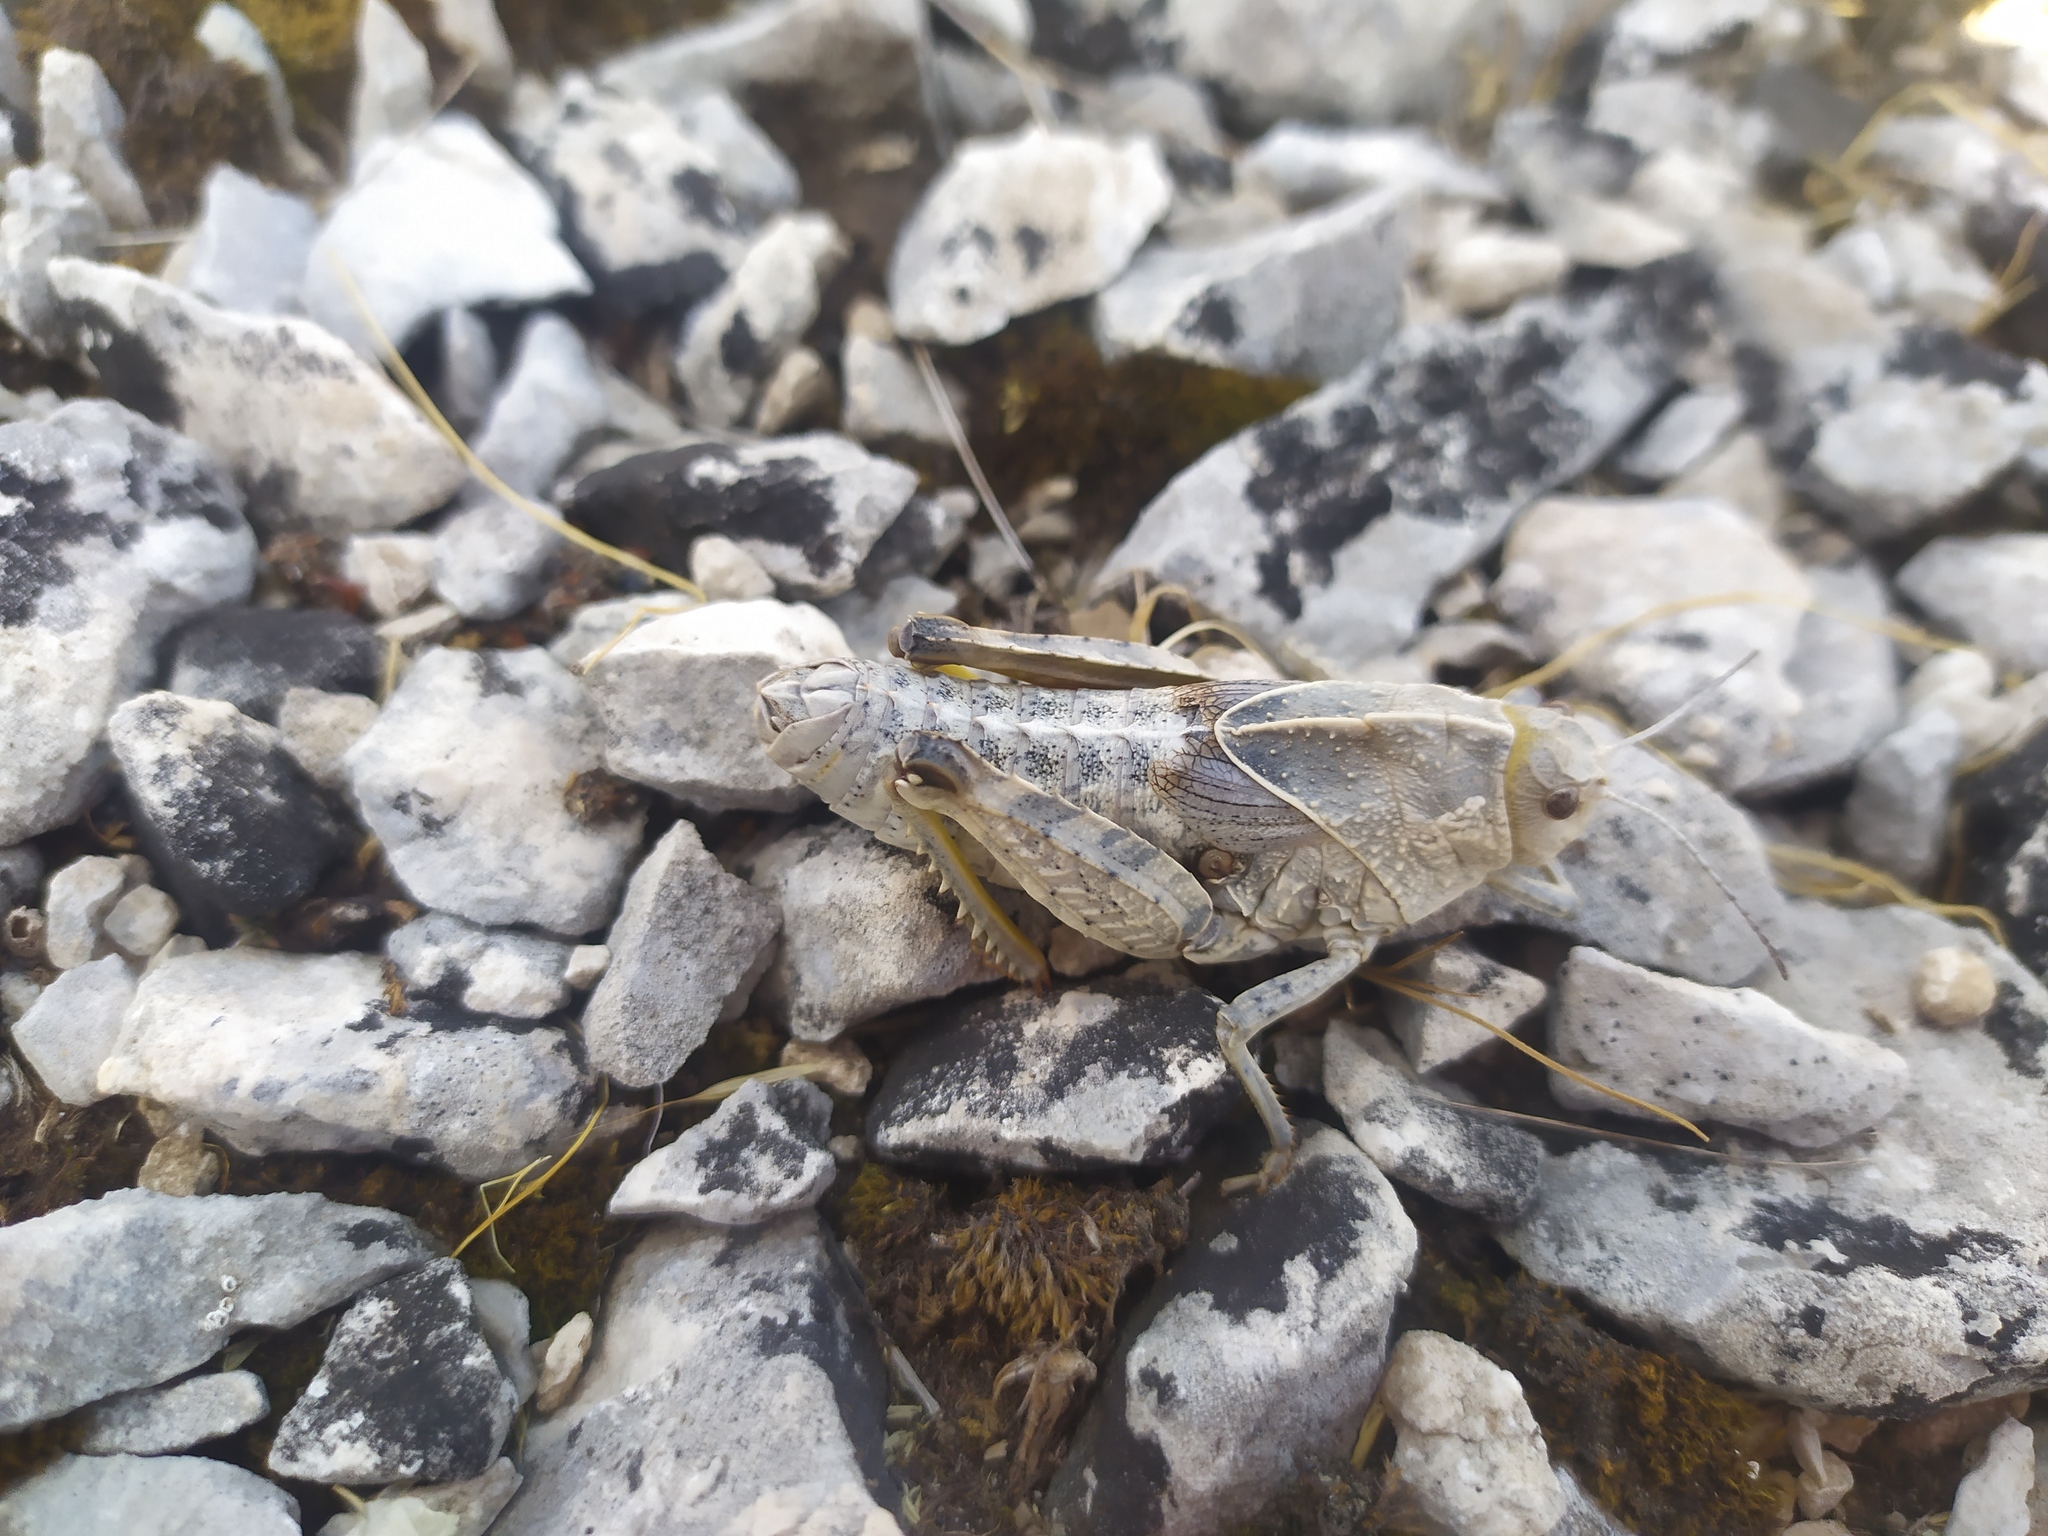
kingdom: Animalia
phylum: Arthropoda
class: Insecta
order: Orthoptera
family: Pamphagidae
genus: Prionotropis
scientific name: Prionotropis hystrix
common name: Eastern stone grasshopper
